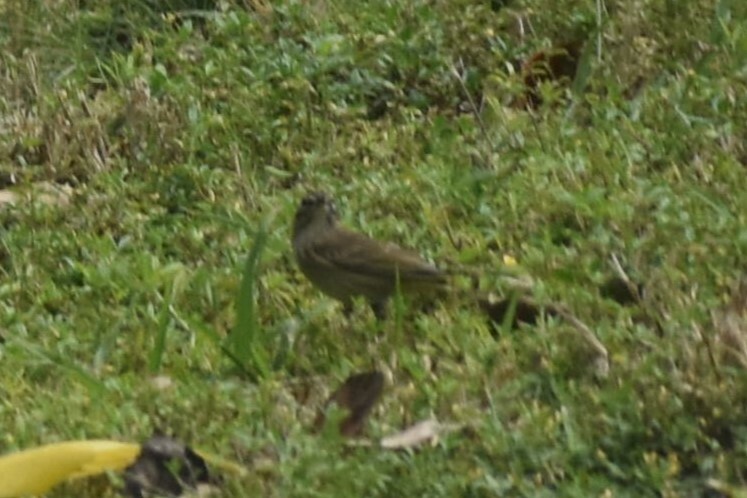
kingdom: Animalia
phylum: Chordata
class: Aves
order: Passeriformes
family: Parulidae
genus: Setophaga
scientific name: Setophaga palmarum
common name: Palm warbler
